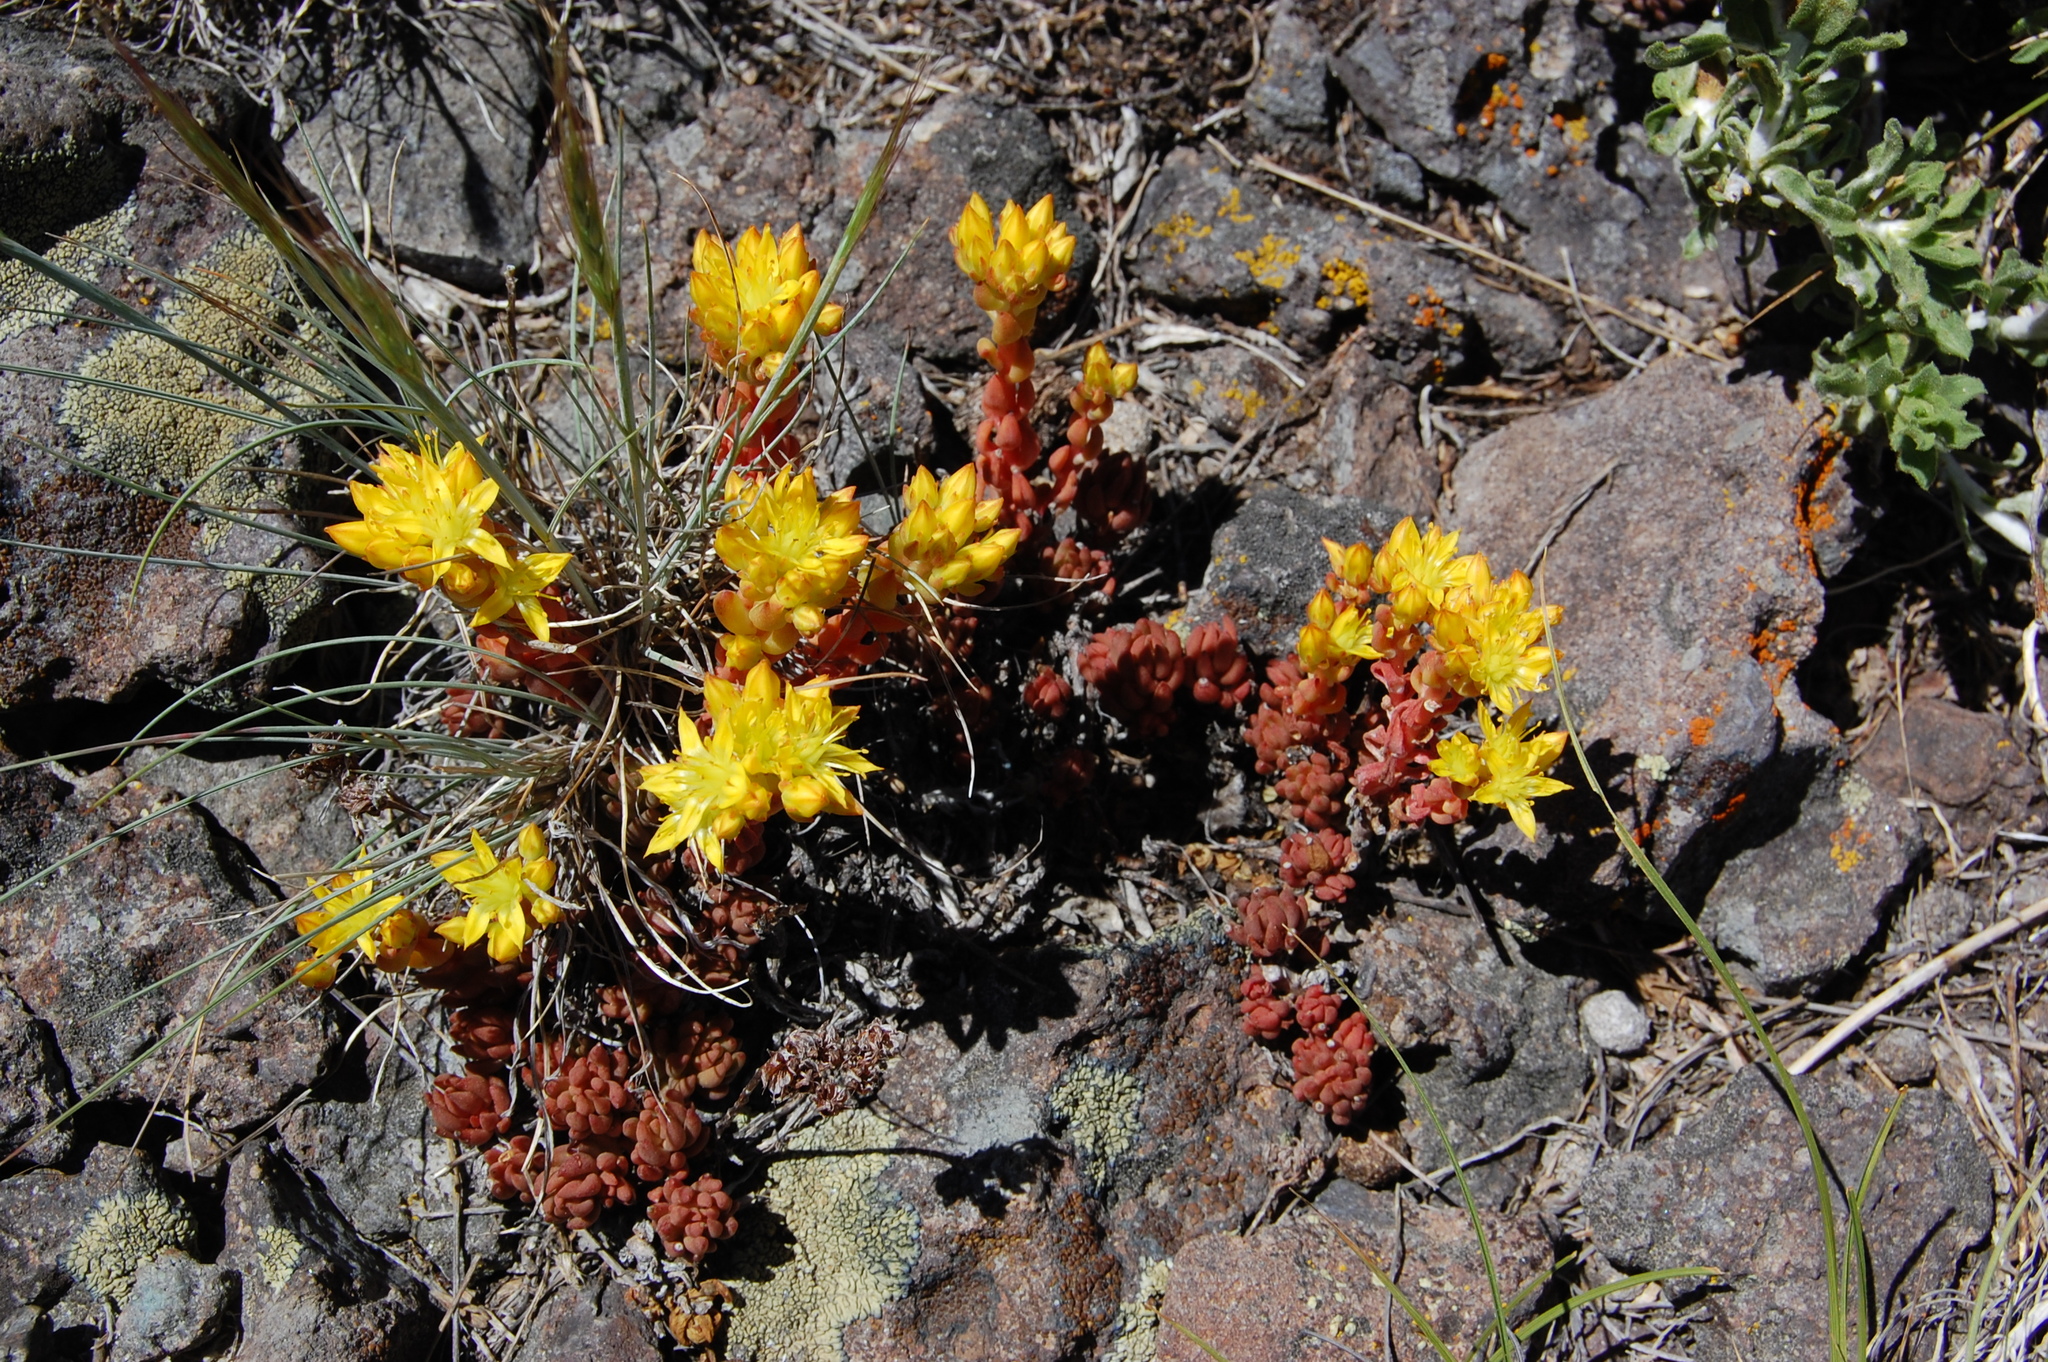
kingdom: Plantae
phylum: Tracheophyta
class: Magnoliopsida
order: Saxifragales
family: Crassulaceae
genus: Sedum
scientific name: Sedum lanceolatum
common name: Common stonecrop
